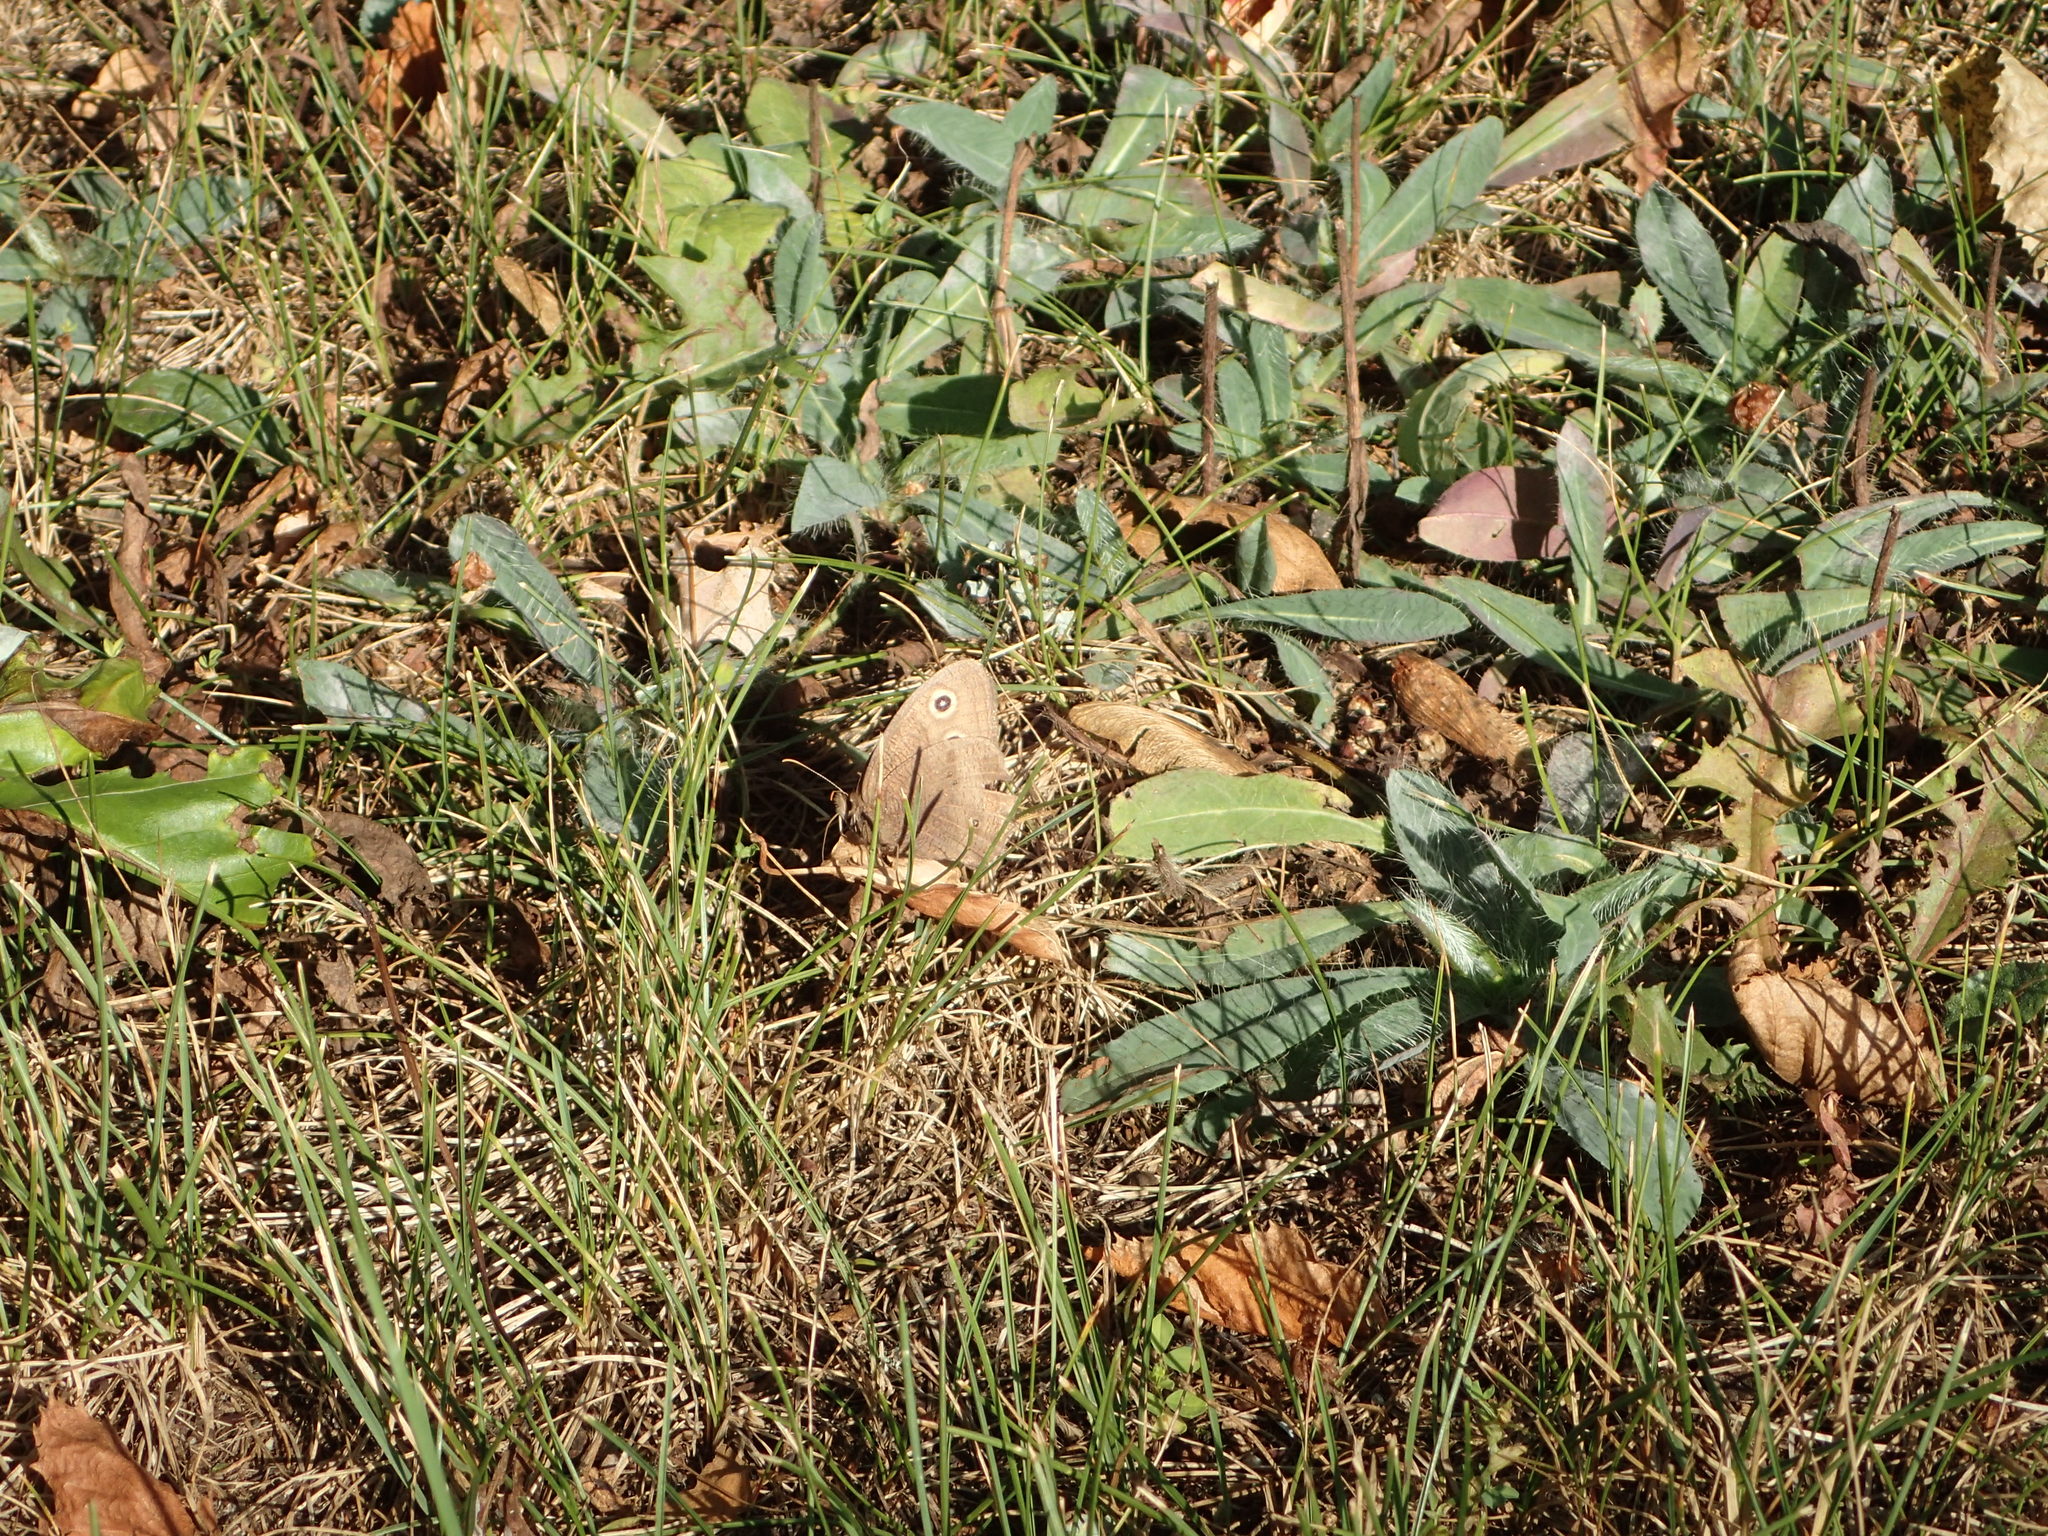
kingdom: Animalia
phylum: Arthropoda
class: Insecta
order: Lepidoptera
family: Nymphalidae
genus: Cercyonis
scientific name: Cercyonis pegala
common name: Common wood-nymph
